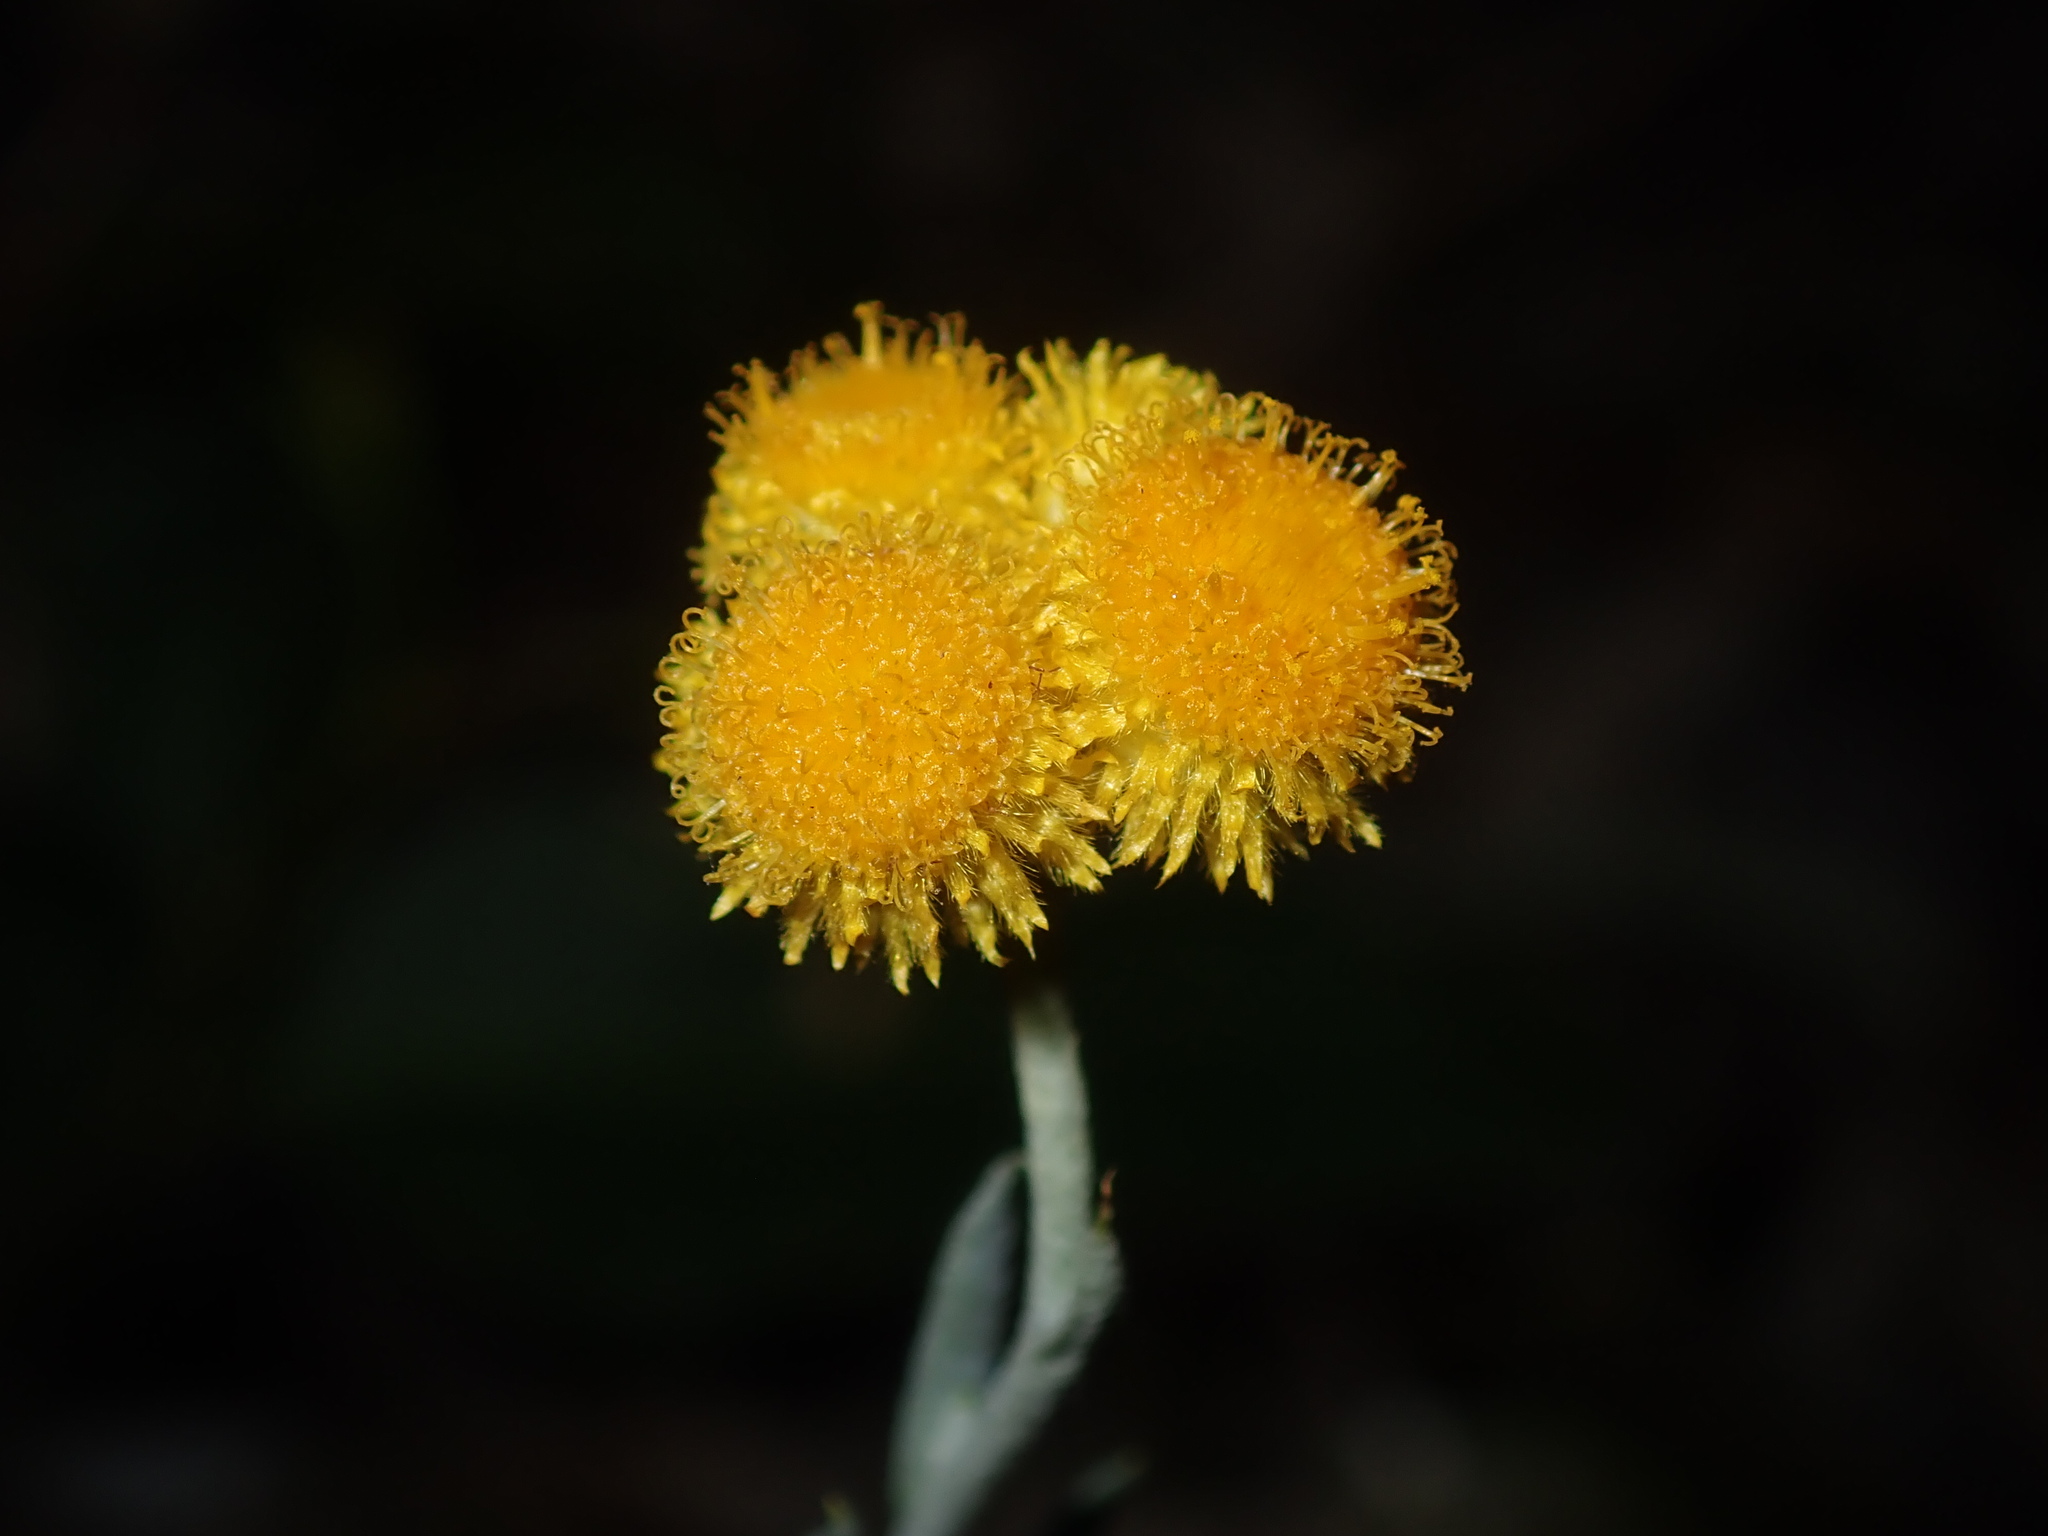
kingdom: Plantae
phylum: Tracheophyta
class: Magnoliopsida
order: Asterales
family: Asteraceae
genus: Chrysocephalum
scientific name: Chrysocephalum apiculatum
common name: Common everlasting
